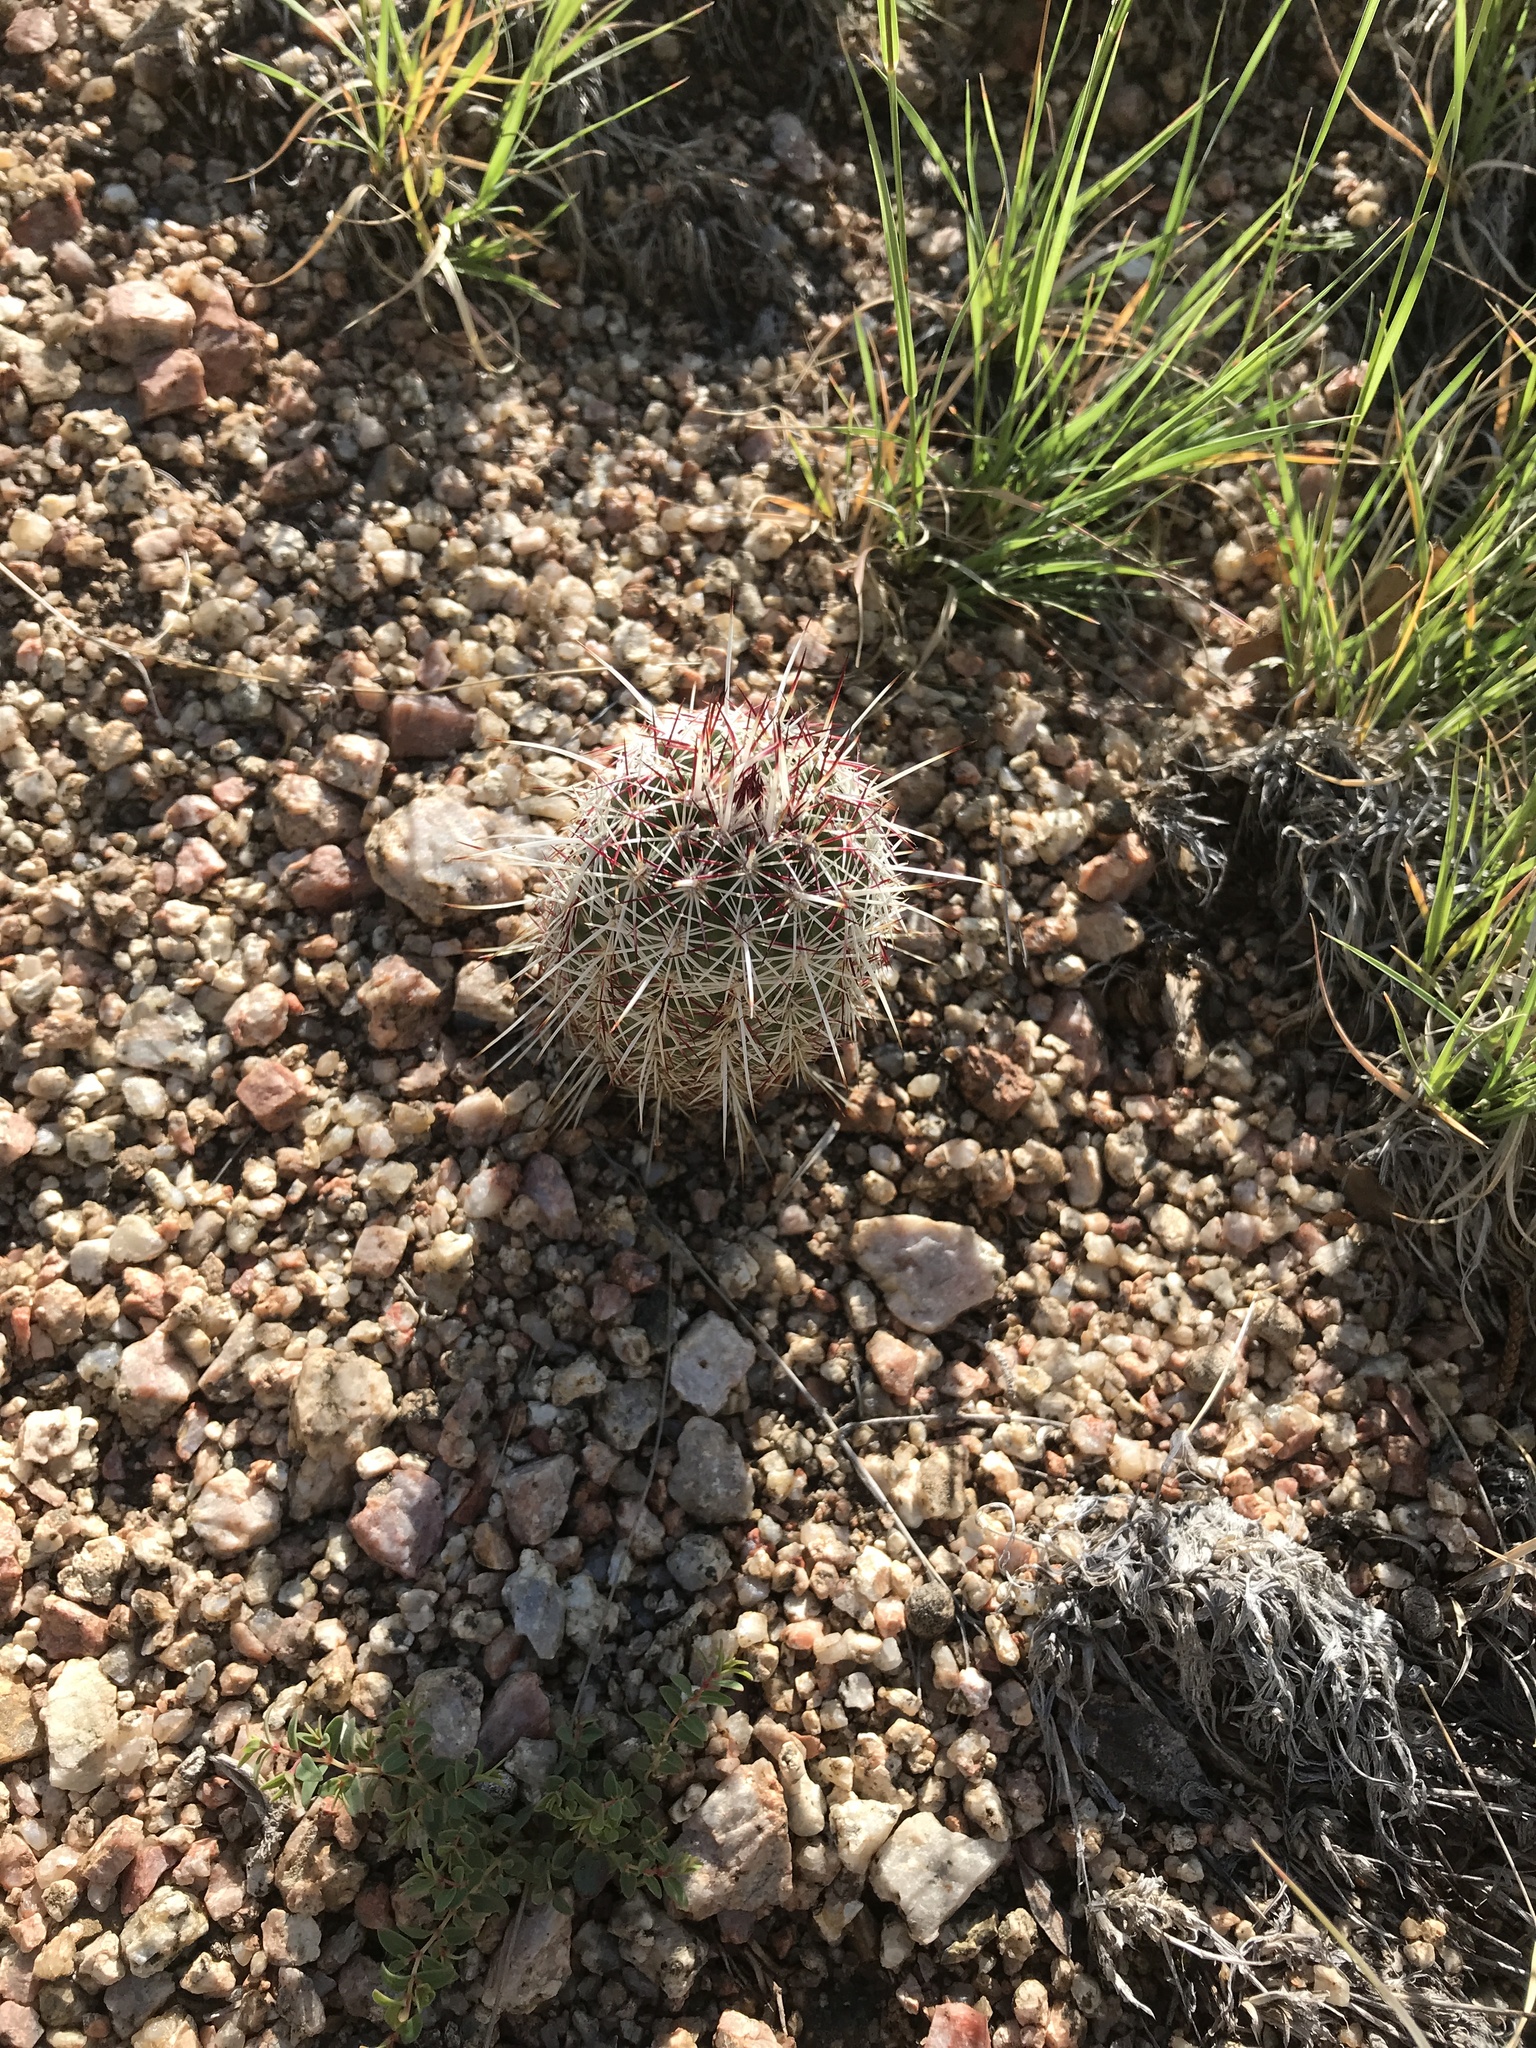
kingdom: Plantae
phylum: Tracheophyta
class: Magnoliopsida
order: Caryophyllales
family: Cactaceae
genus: Echinocereus
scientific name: Echinocereus viridiflorus
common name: Nylon hedgehog cactus
